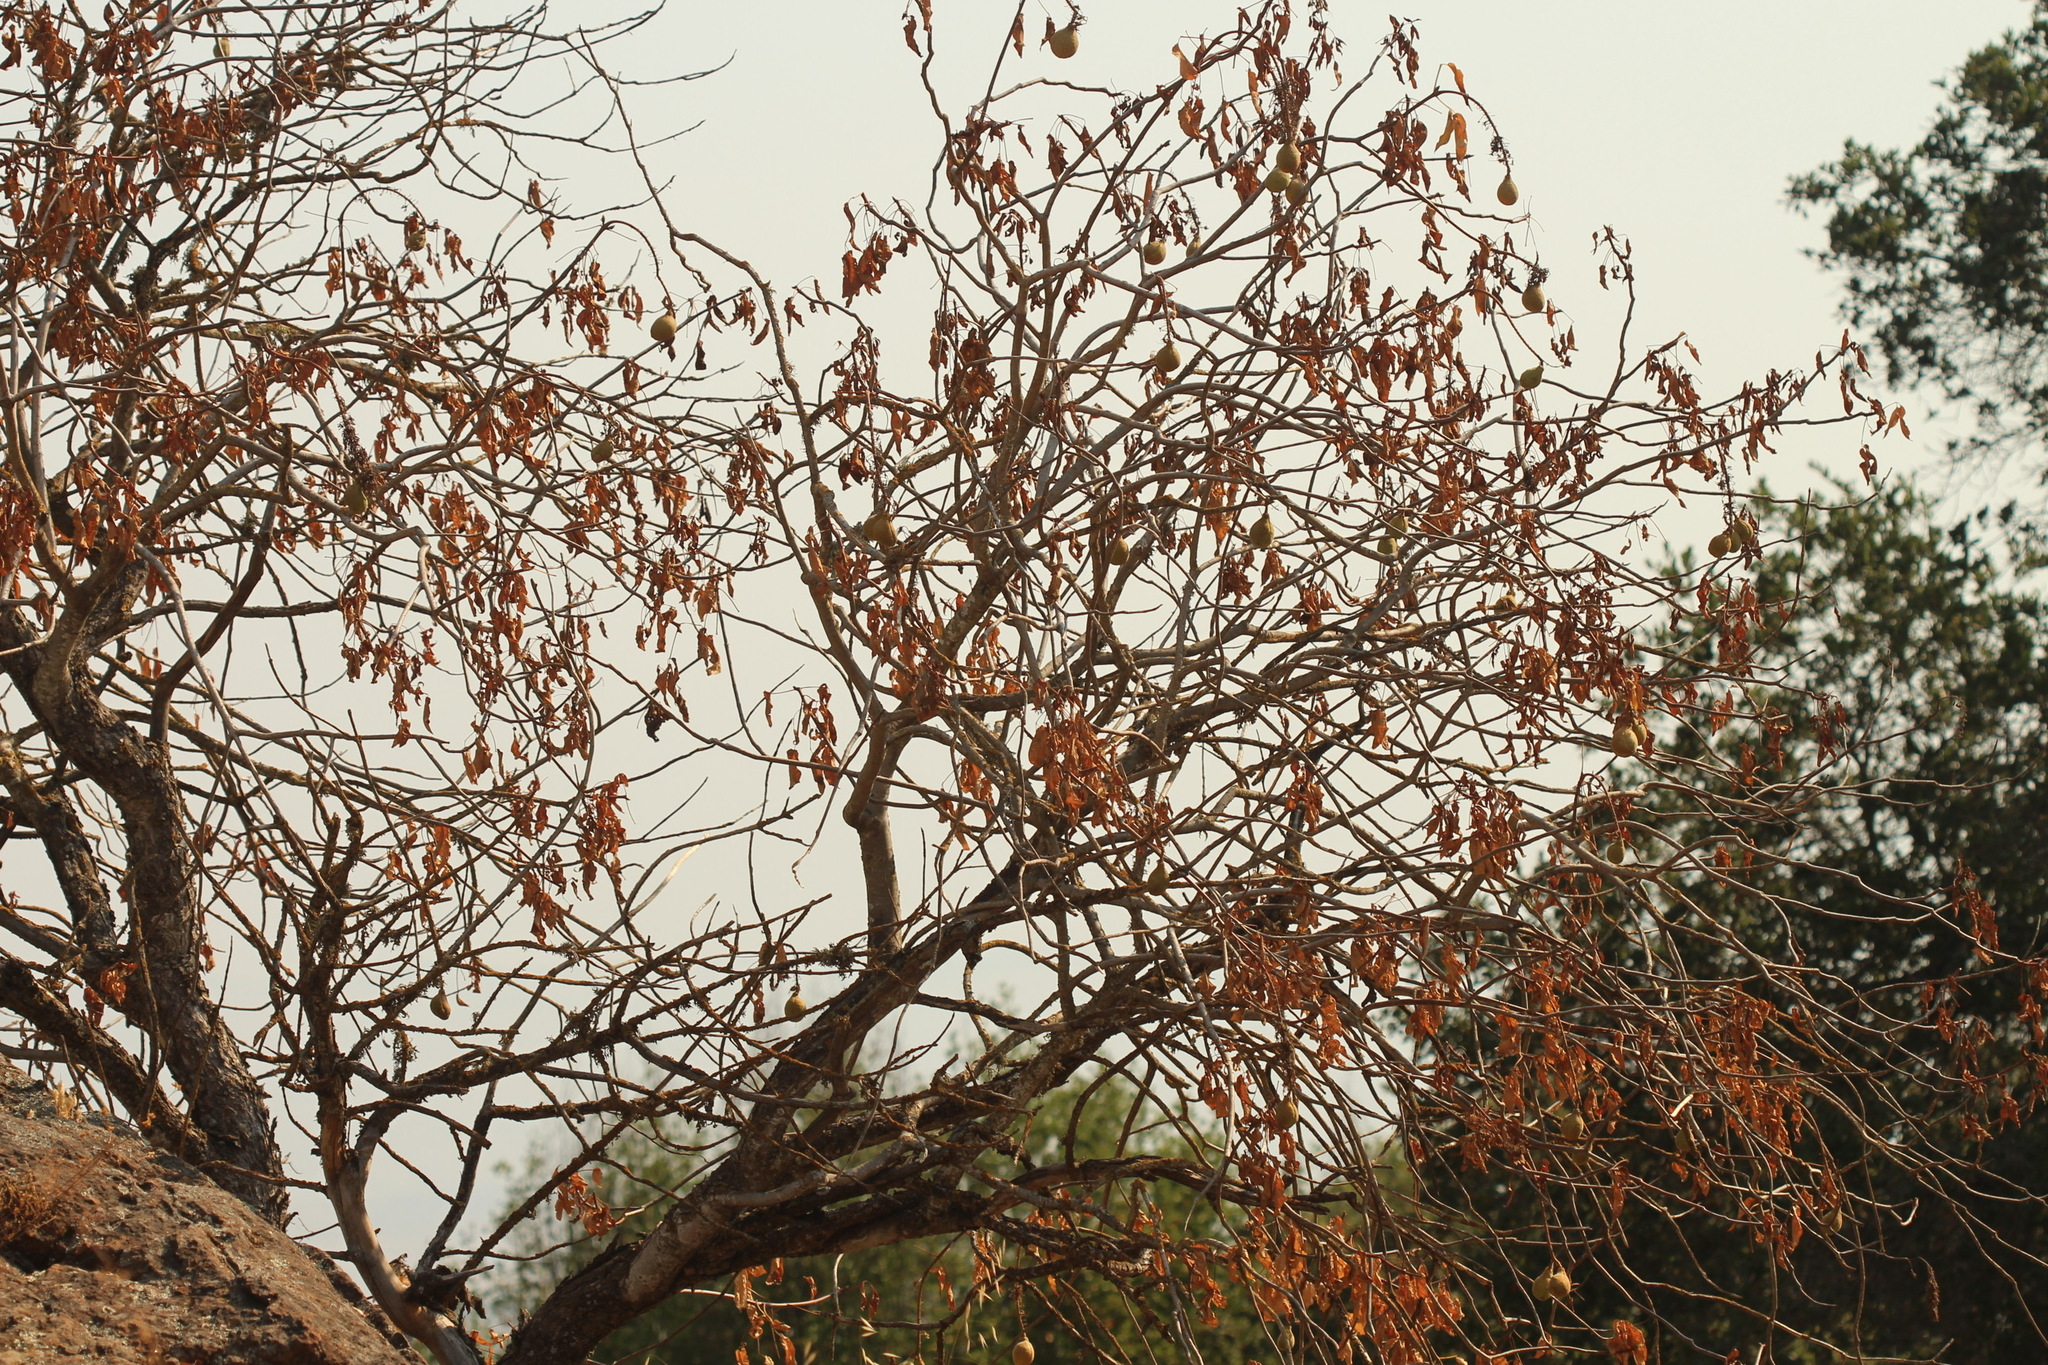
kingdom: Plantae
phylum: Tracheophyta
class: Magnoliopsida
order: Sapindales
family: Sapindaceae
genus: Aesculus
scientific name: Aesculus californica
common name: California buckeye
